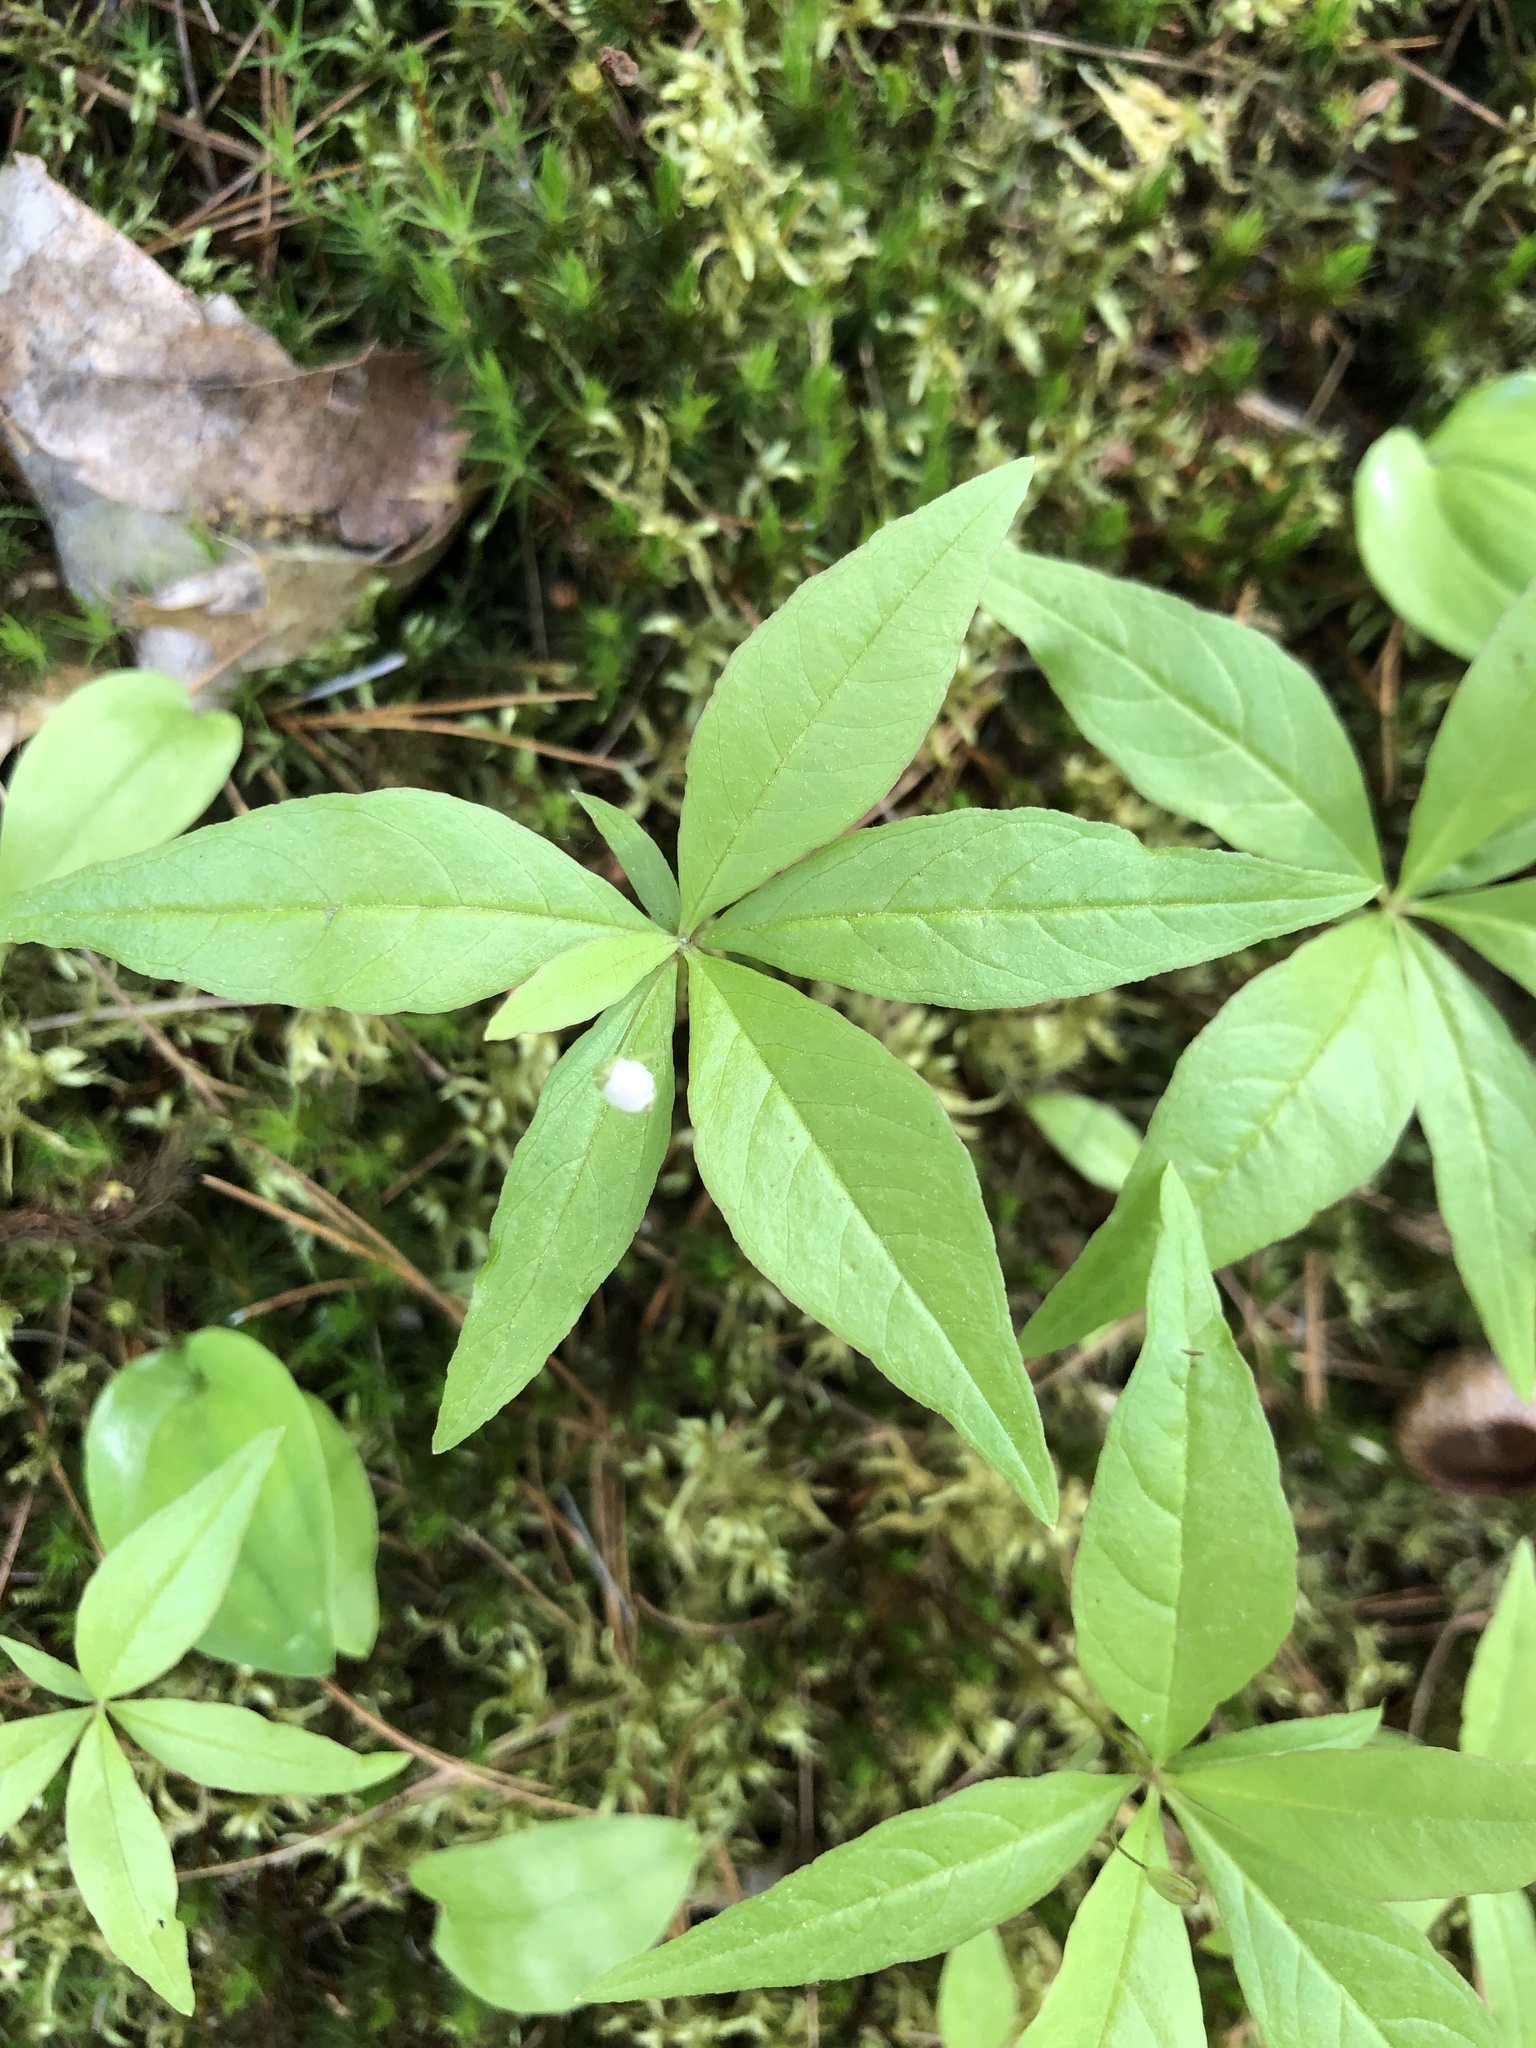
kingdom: Plantae
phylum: Tracheophyta
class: Magnoliopsida
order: Ericales
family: Primulaceae
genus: Lysimachia
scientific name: Lysimachia borealis
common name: American starflower
